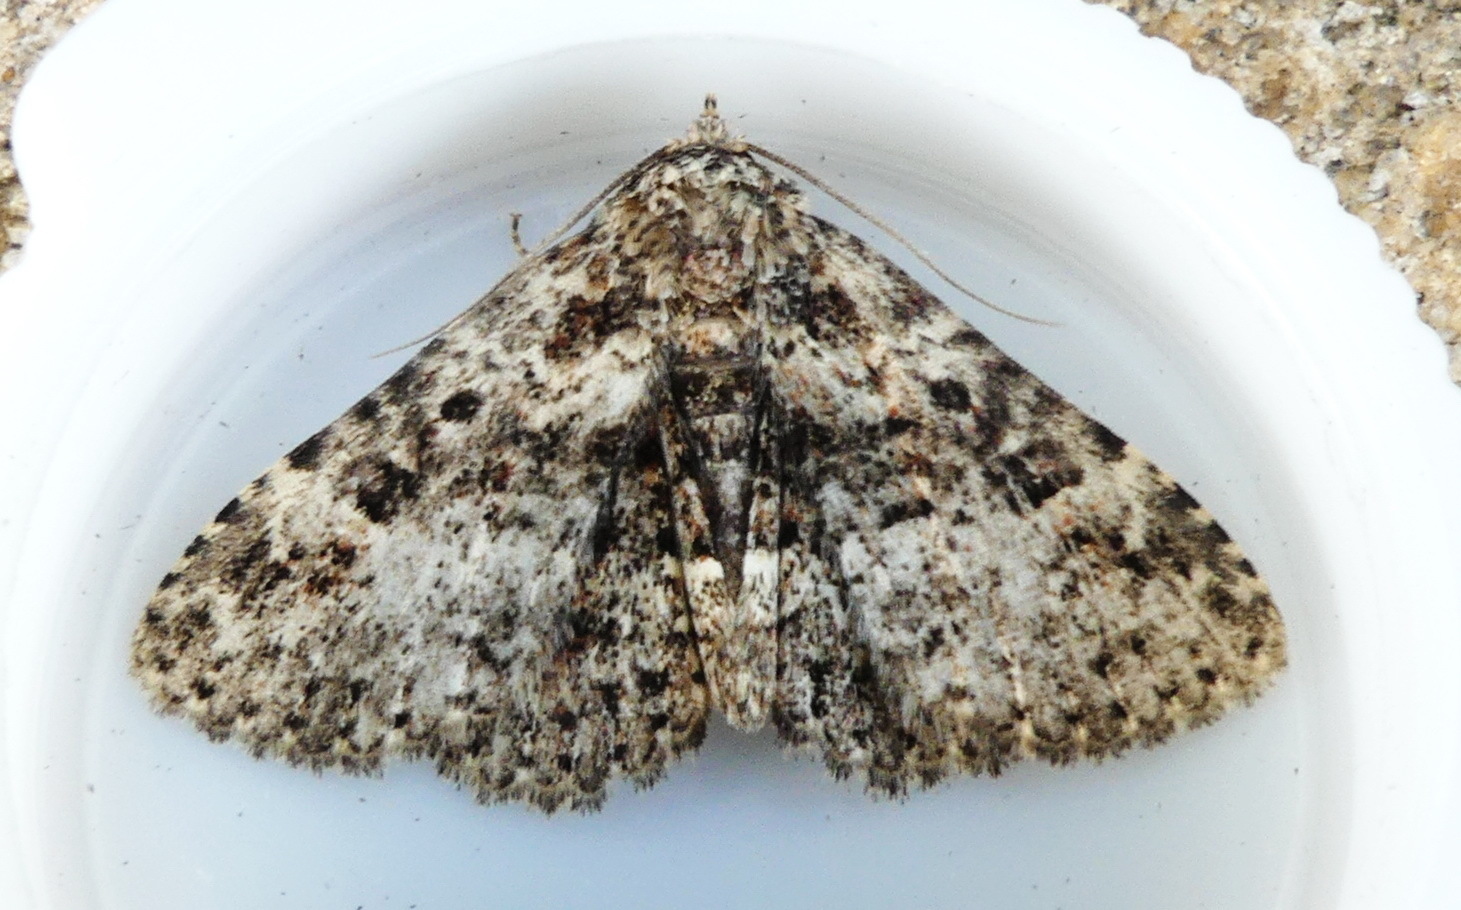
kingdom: Animalia
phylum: Arthropoda
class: Insecta
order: Lepidoptera
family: Erebidae
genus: Metalectra
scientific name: Metalectra discalis
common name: Common fungus moth
